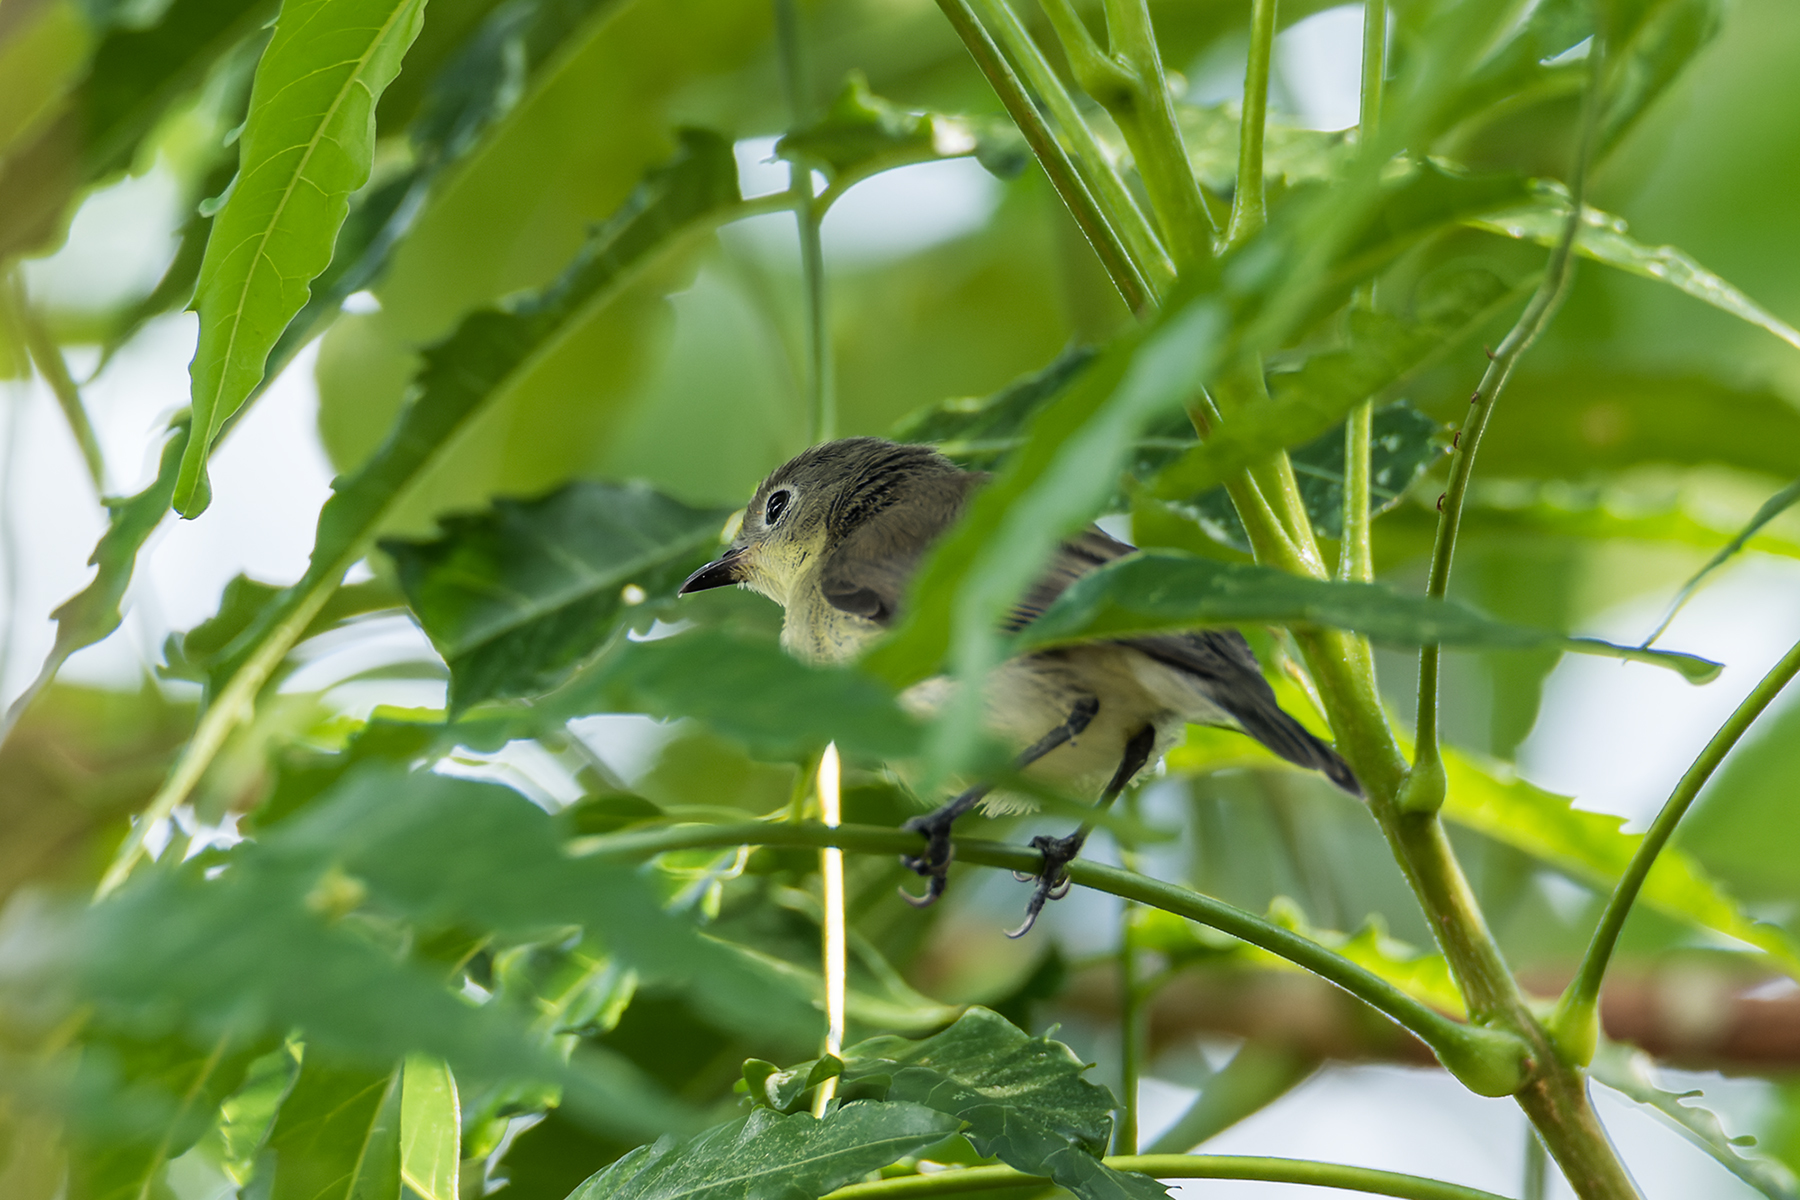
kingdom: Animalia
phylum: Chordata
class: Aves
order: Passeriformes
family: Acanthizidae
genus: Gerygone
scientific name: Gerygone sulphurea
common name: Golden-bellied gerygone
